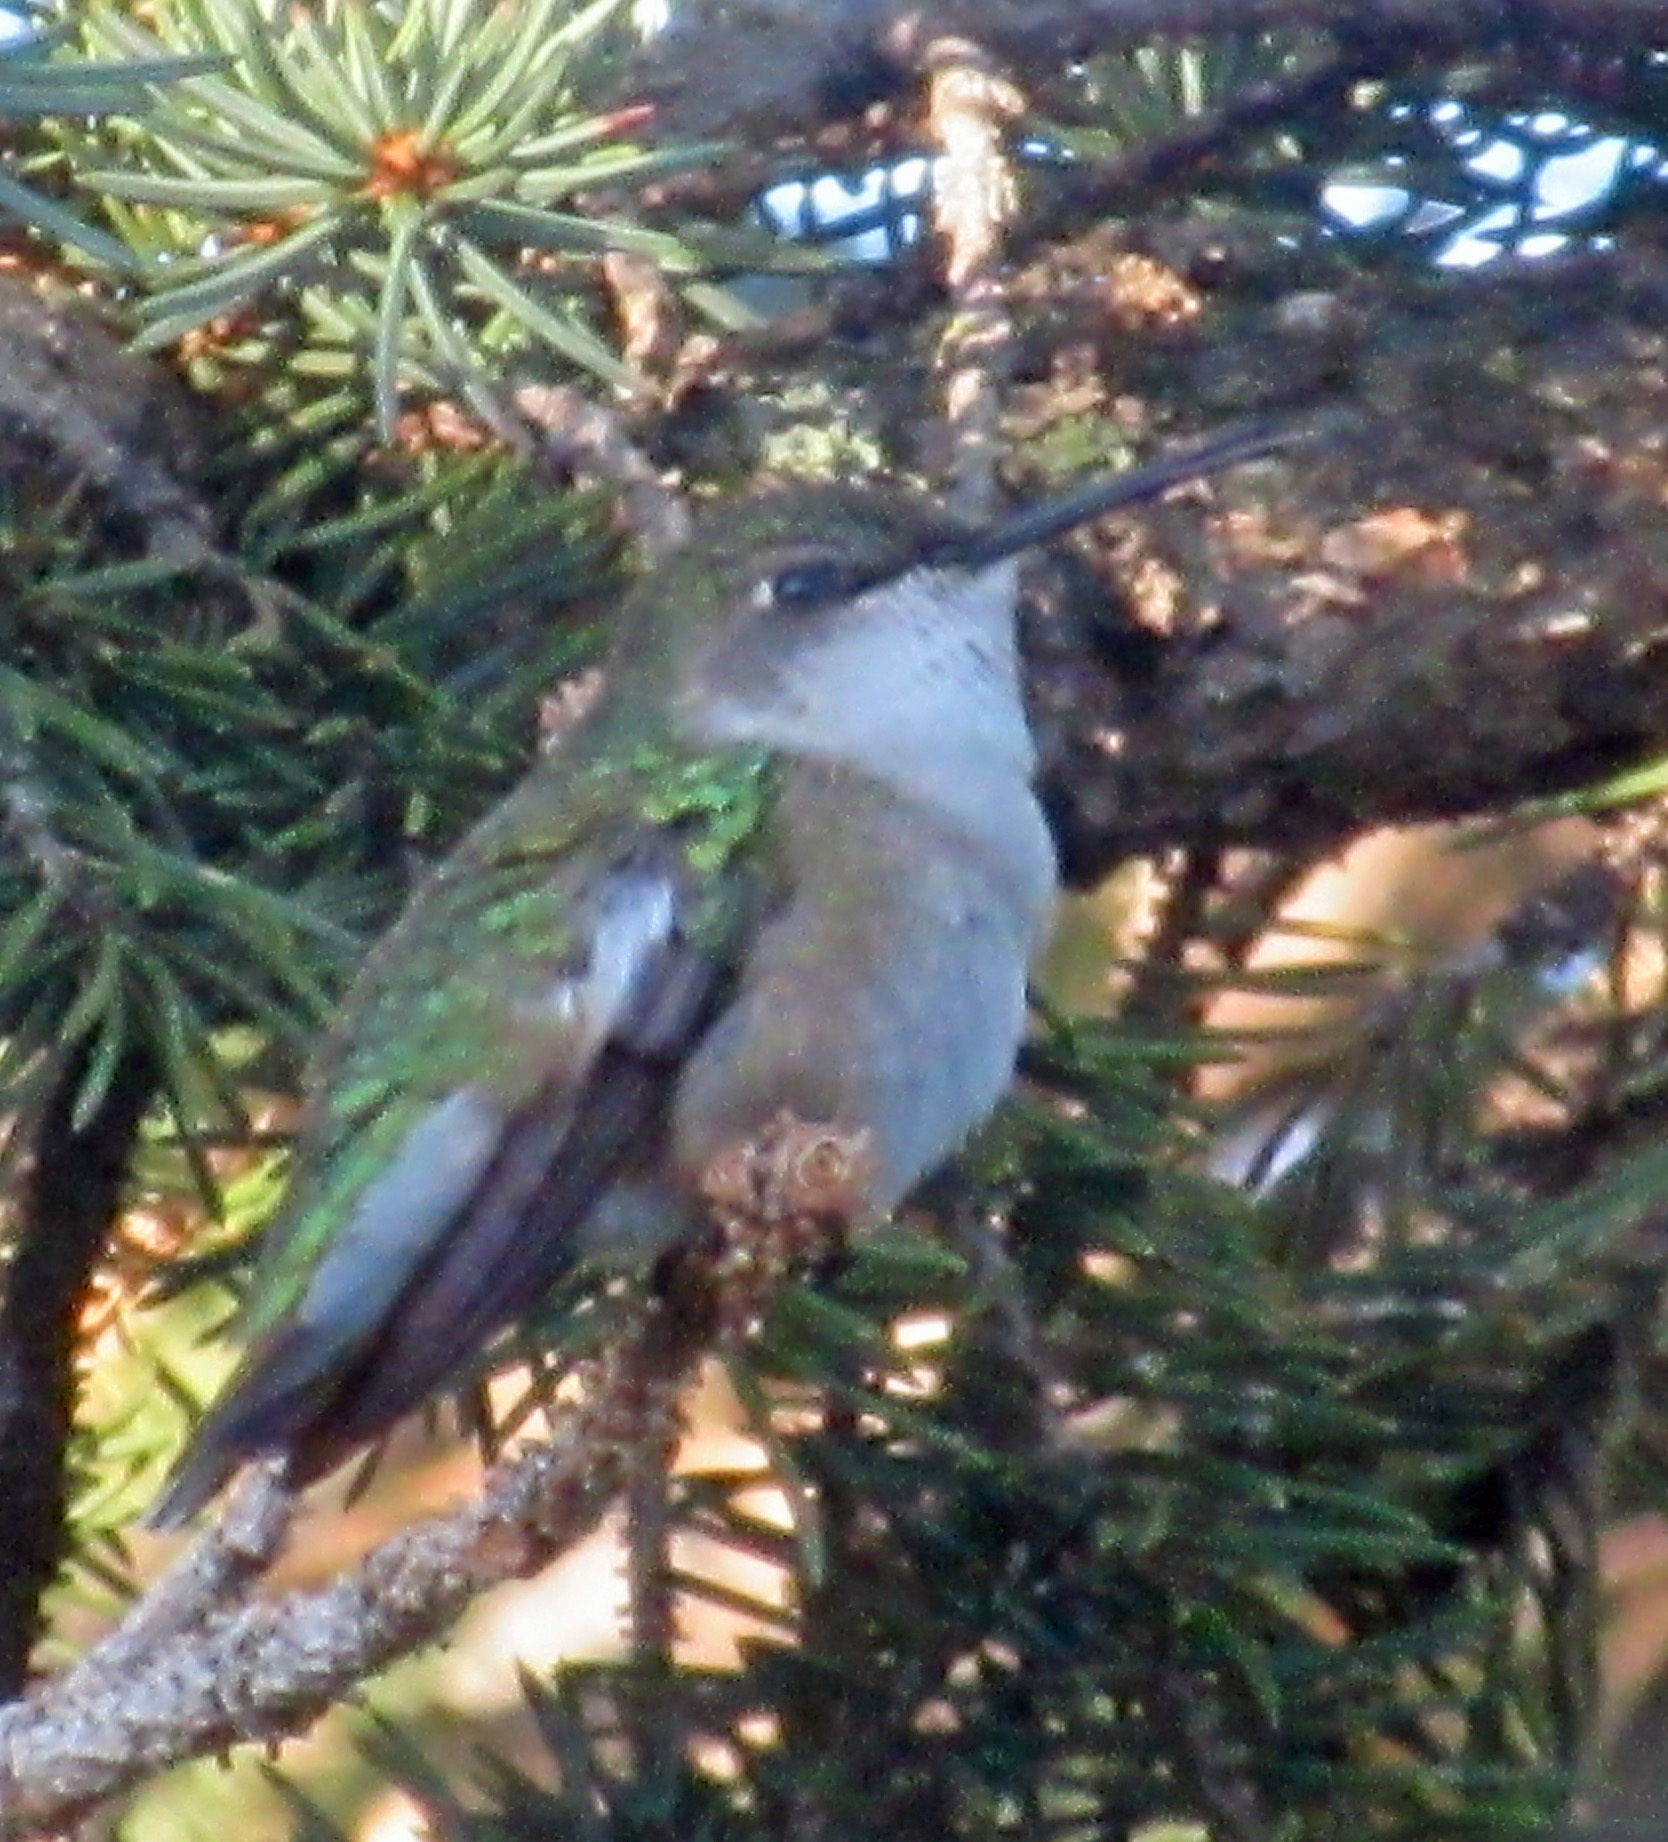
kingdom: Animalia
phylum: Chordata
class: Aves
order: Apodiformes
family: Trochilidae
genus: Archilochus
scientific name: Archilochus colubris
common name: Ruby-throated hummingbird
